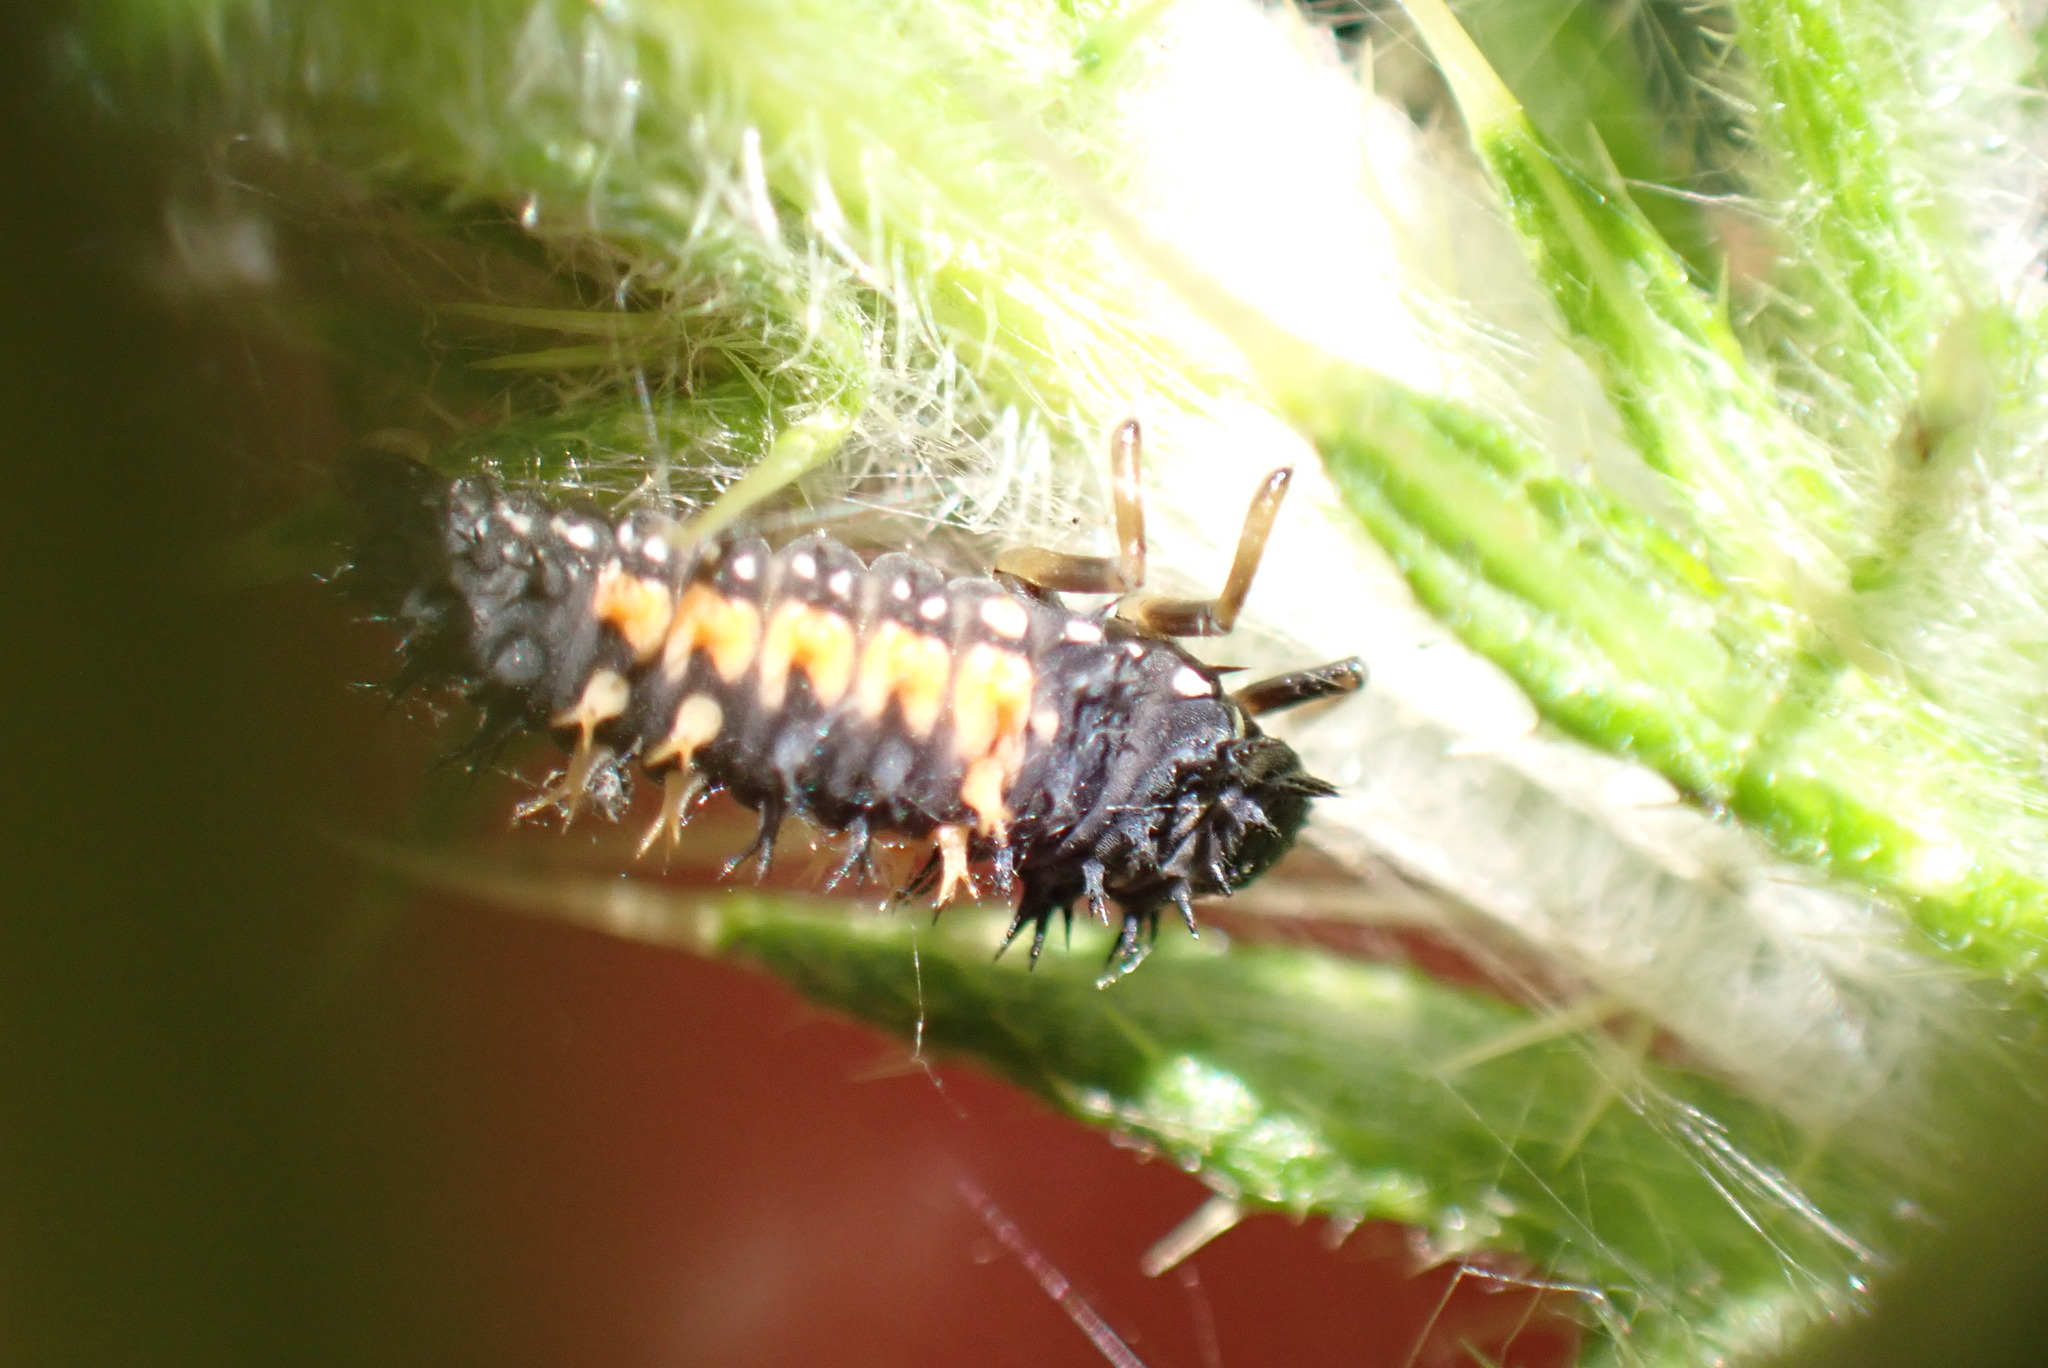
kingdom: Animalia
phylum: Arthropoda
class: Insecta
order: Coleoptera
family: Coccinellidae
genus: Harmonia
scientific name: Harmonia axyridis
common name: Harlequin ladybird
